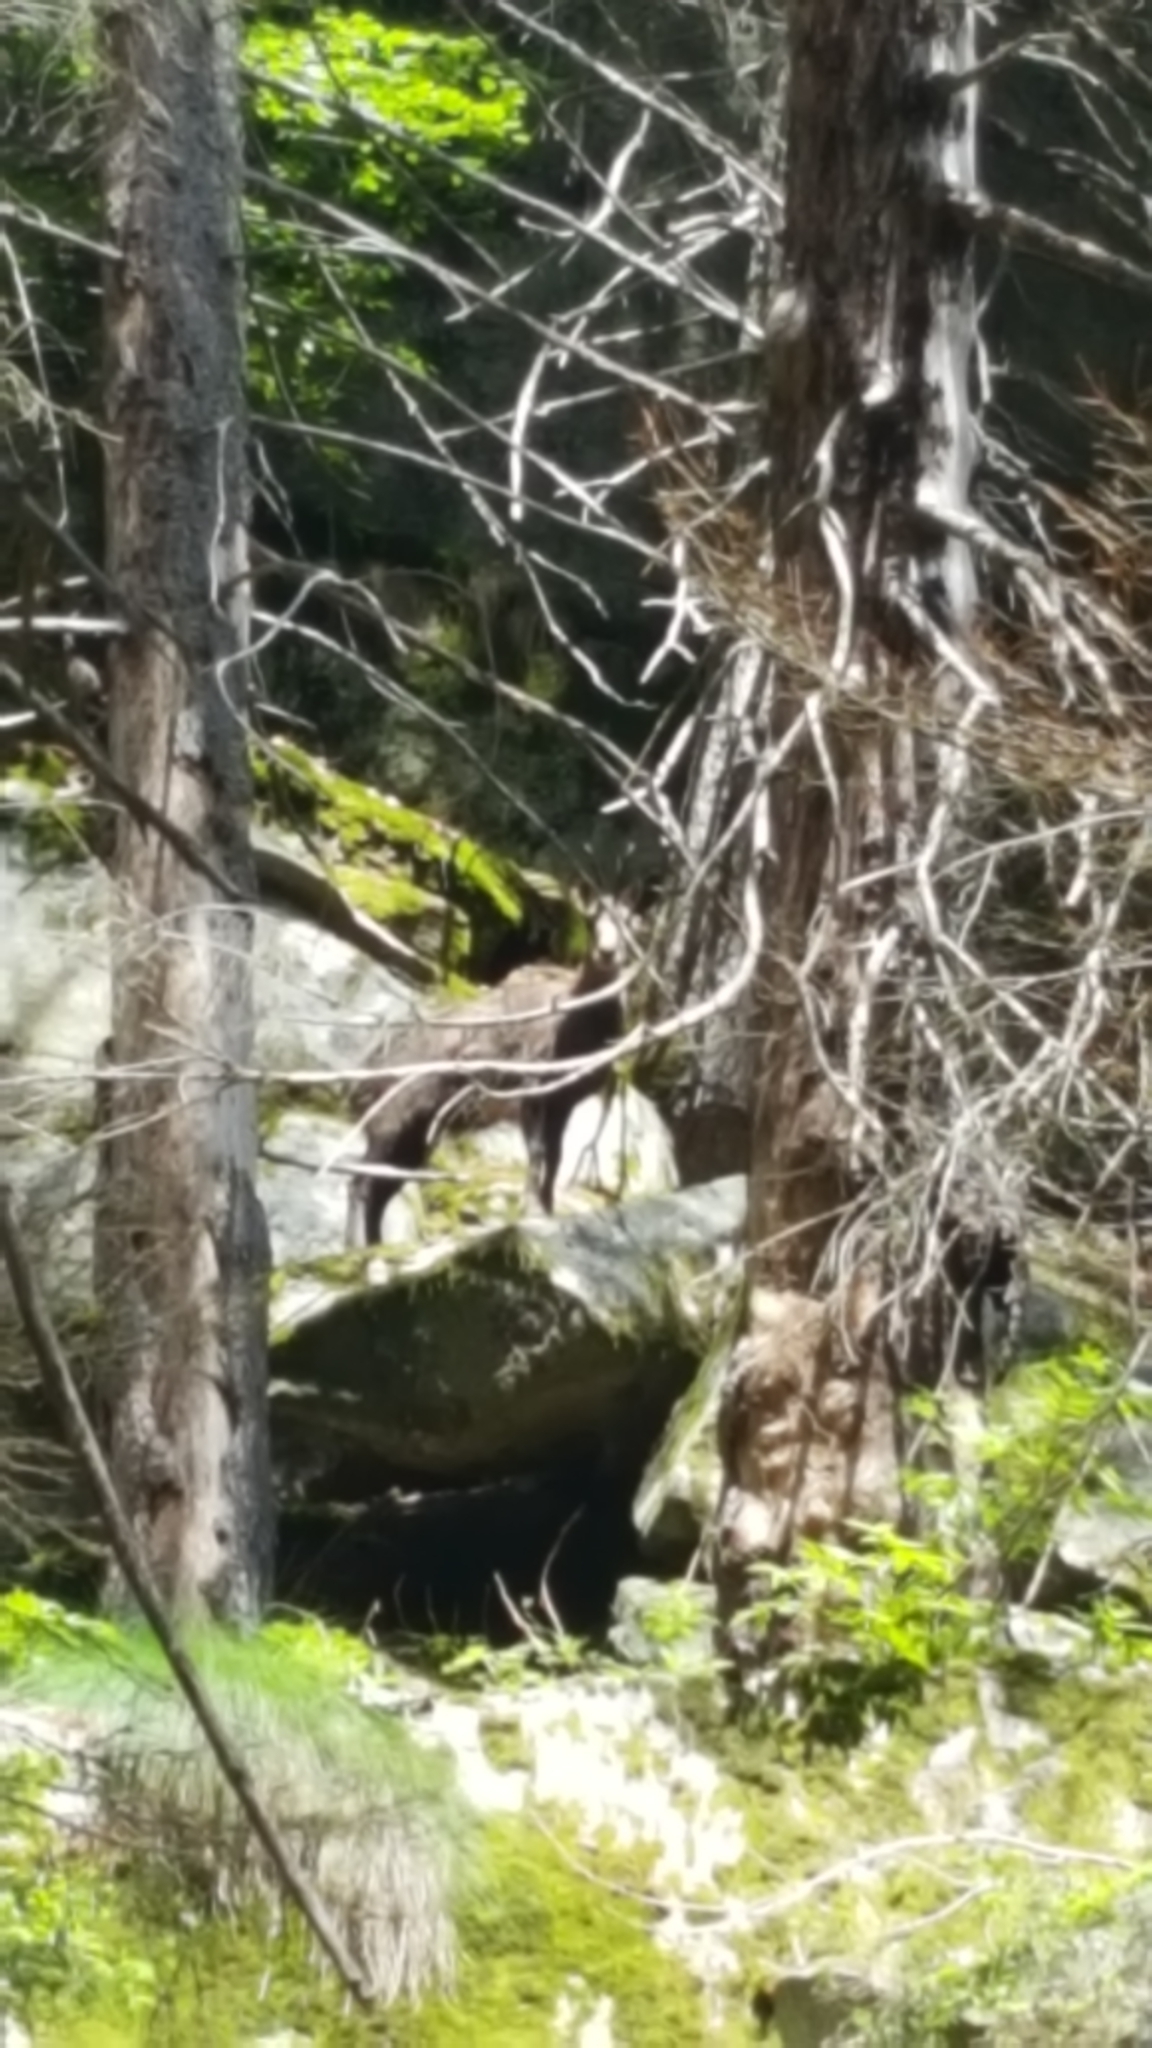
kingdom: Animalia
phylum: Chordata
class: Mammalia
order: Artiodactyla
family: Bovidae
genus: Rupicapra
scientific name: Rupicapra rupicapra
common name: Chamois
